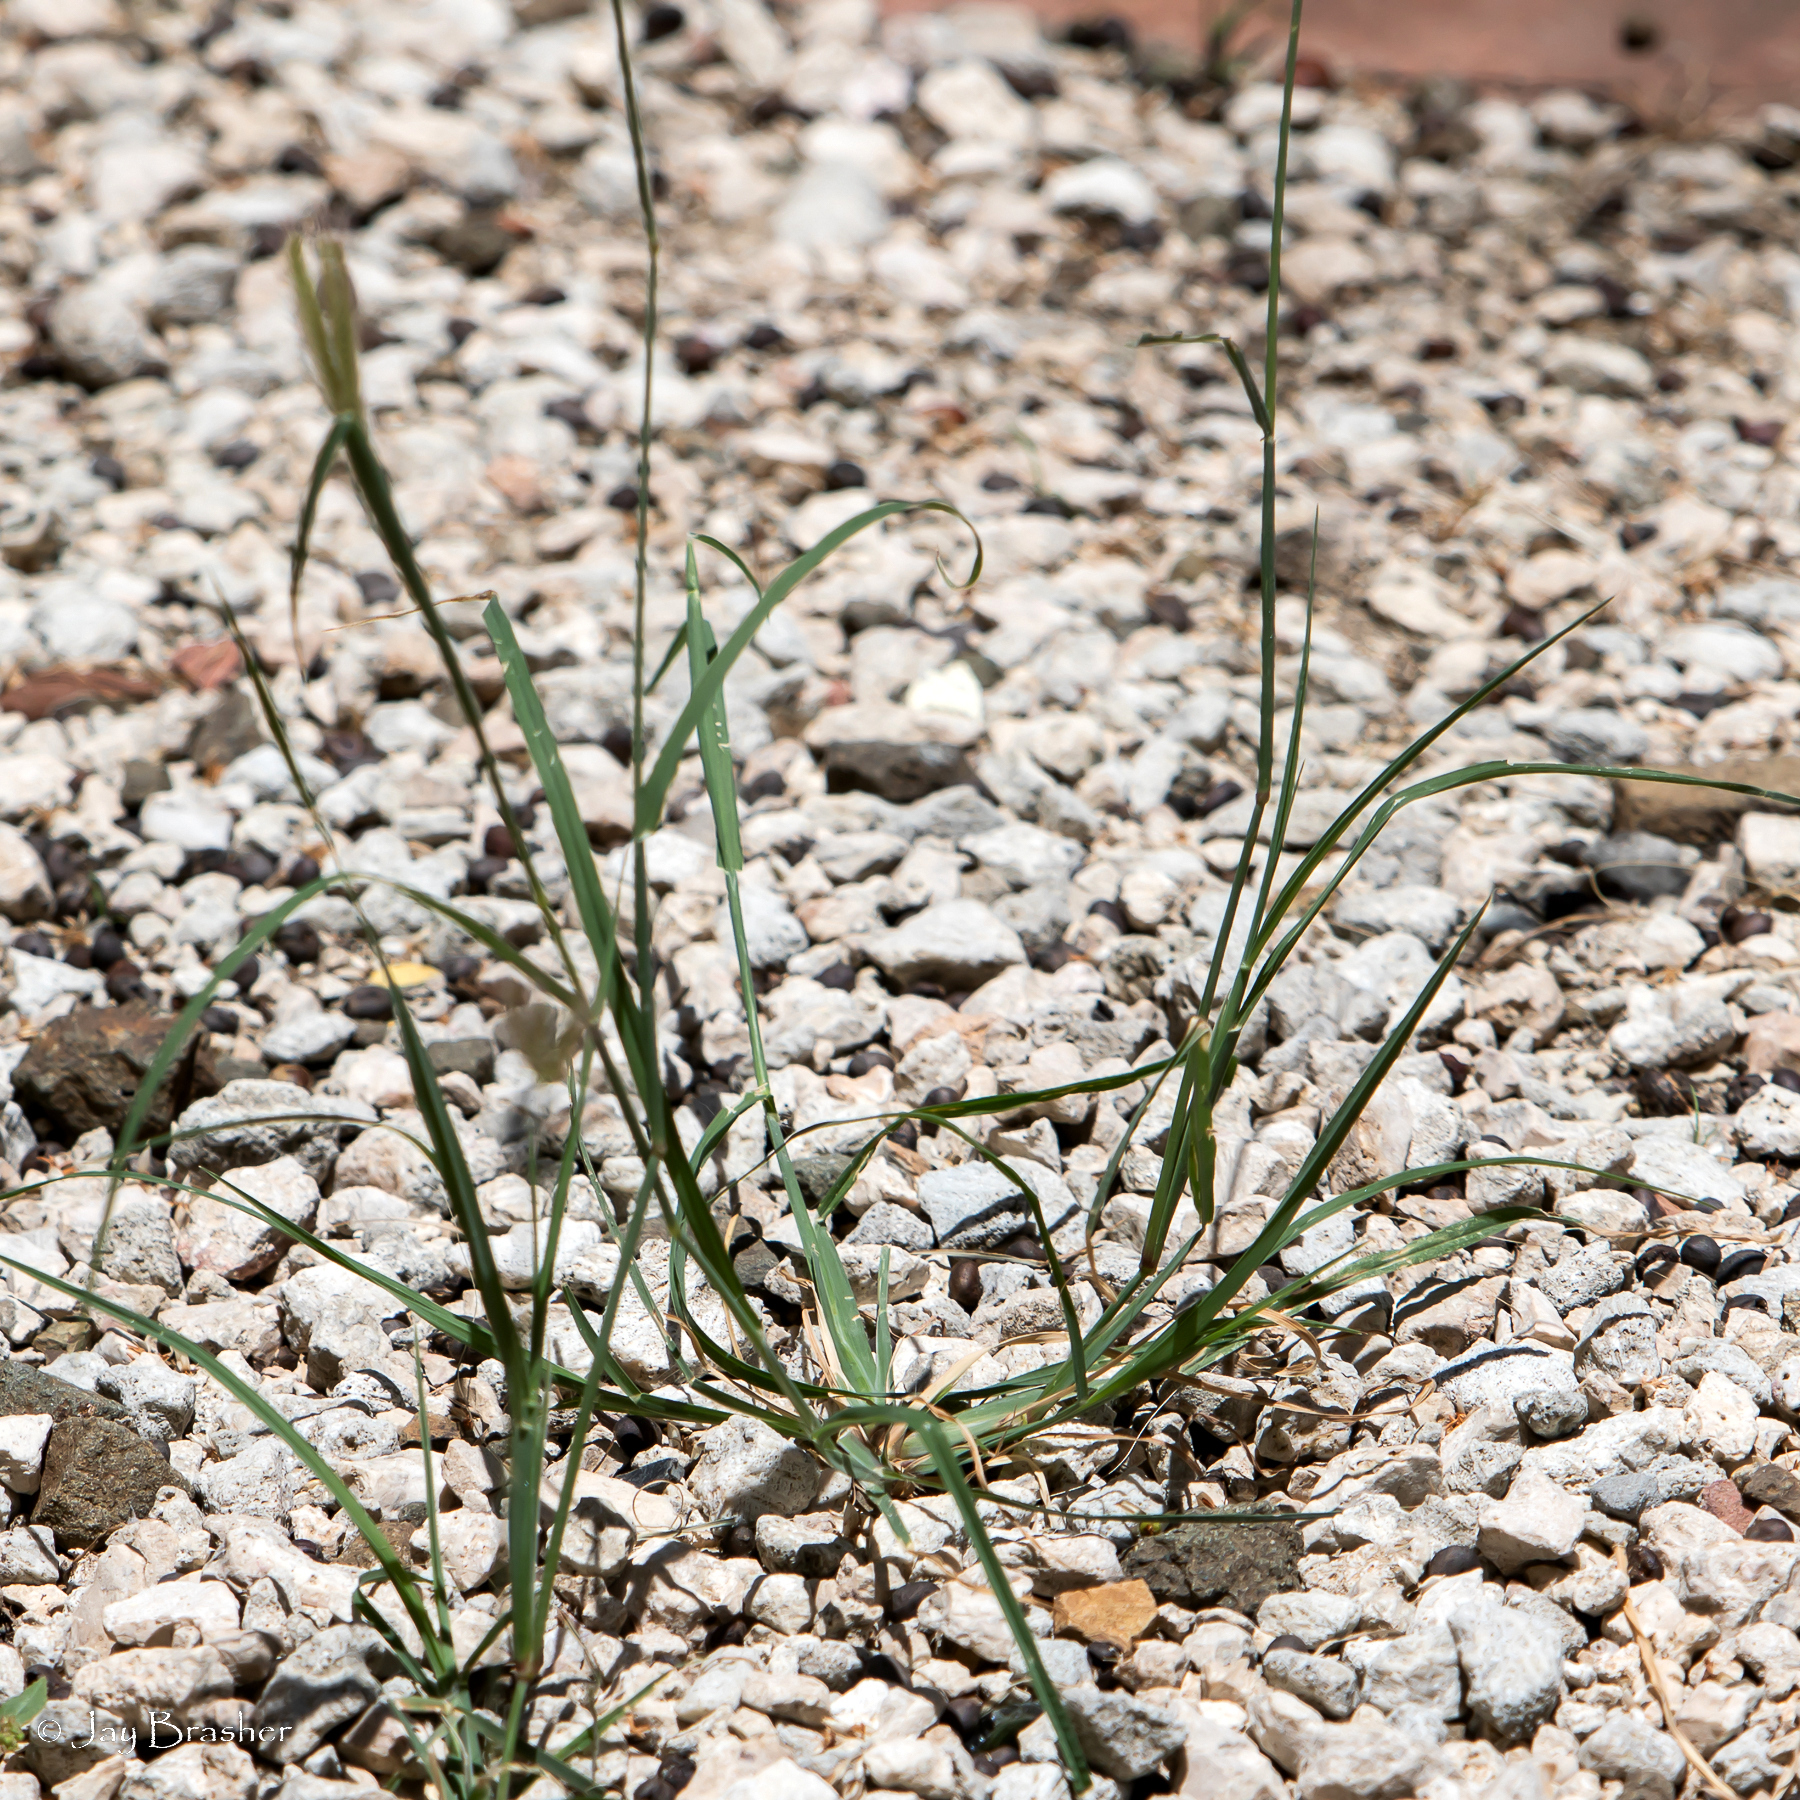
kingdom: Plantae
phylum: Tracheophyta
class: Liliopsida
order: Poales
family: Poaceae
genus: Chloris
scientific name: Chloris barbata
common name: Swollen fingergrass
